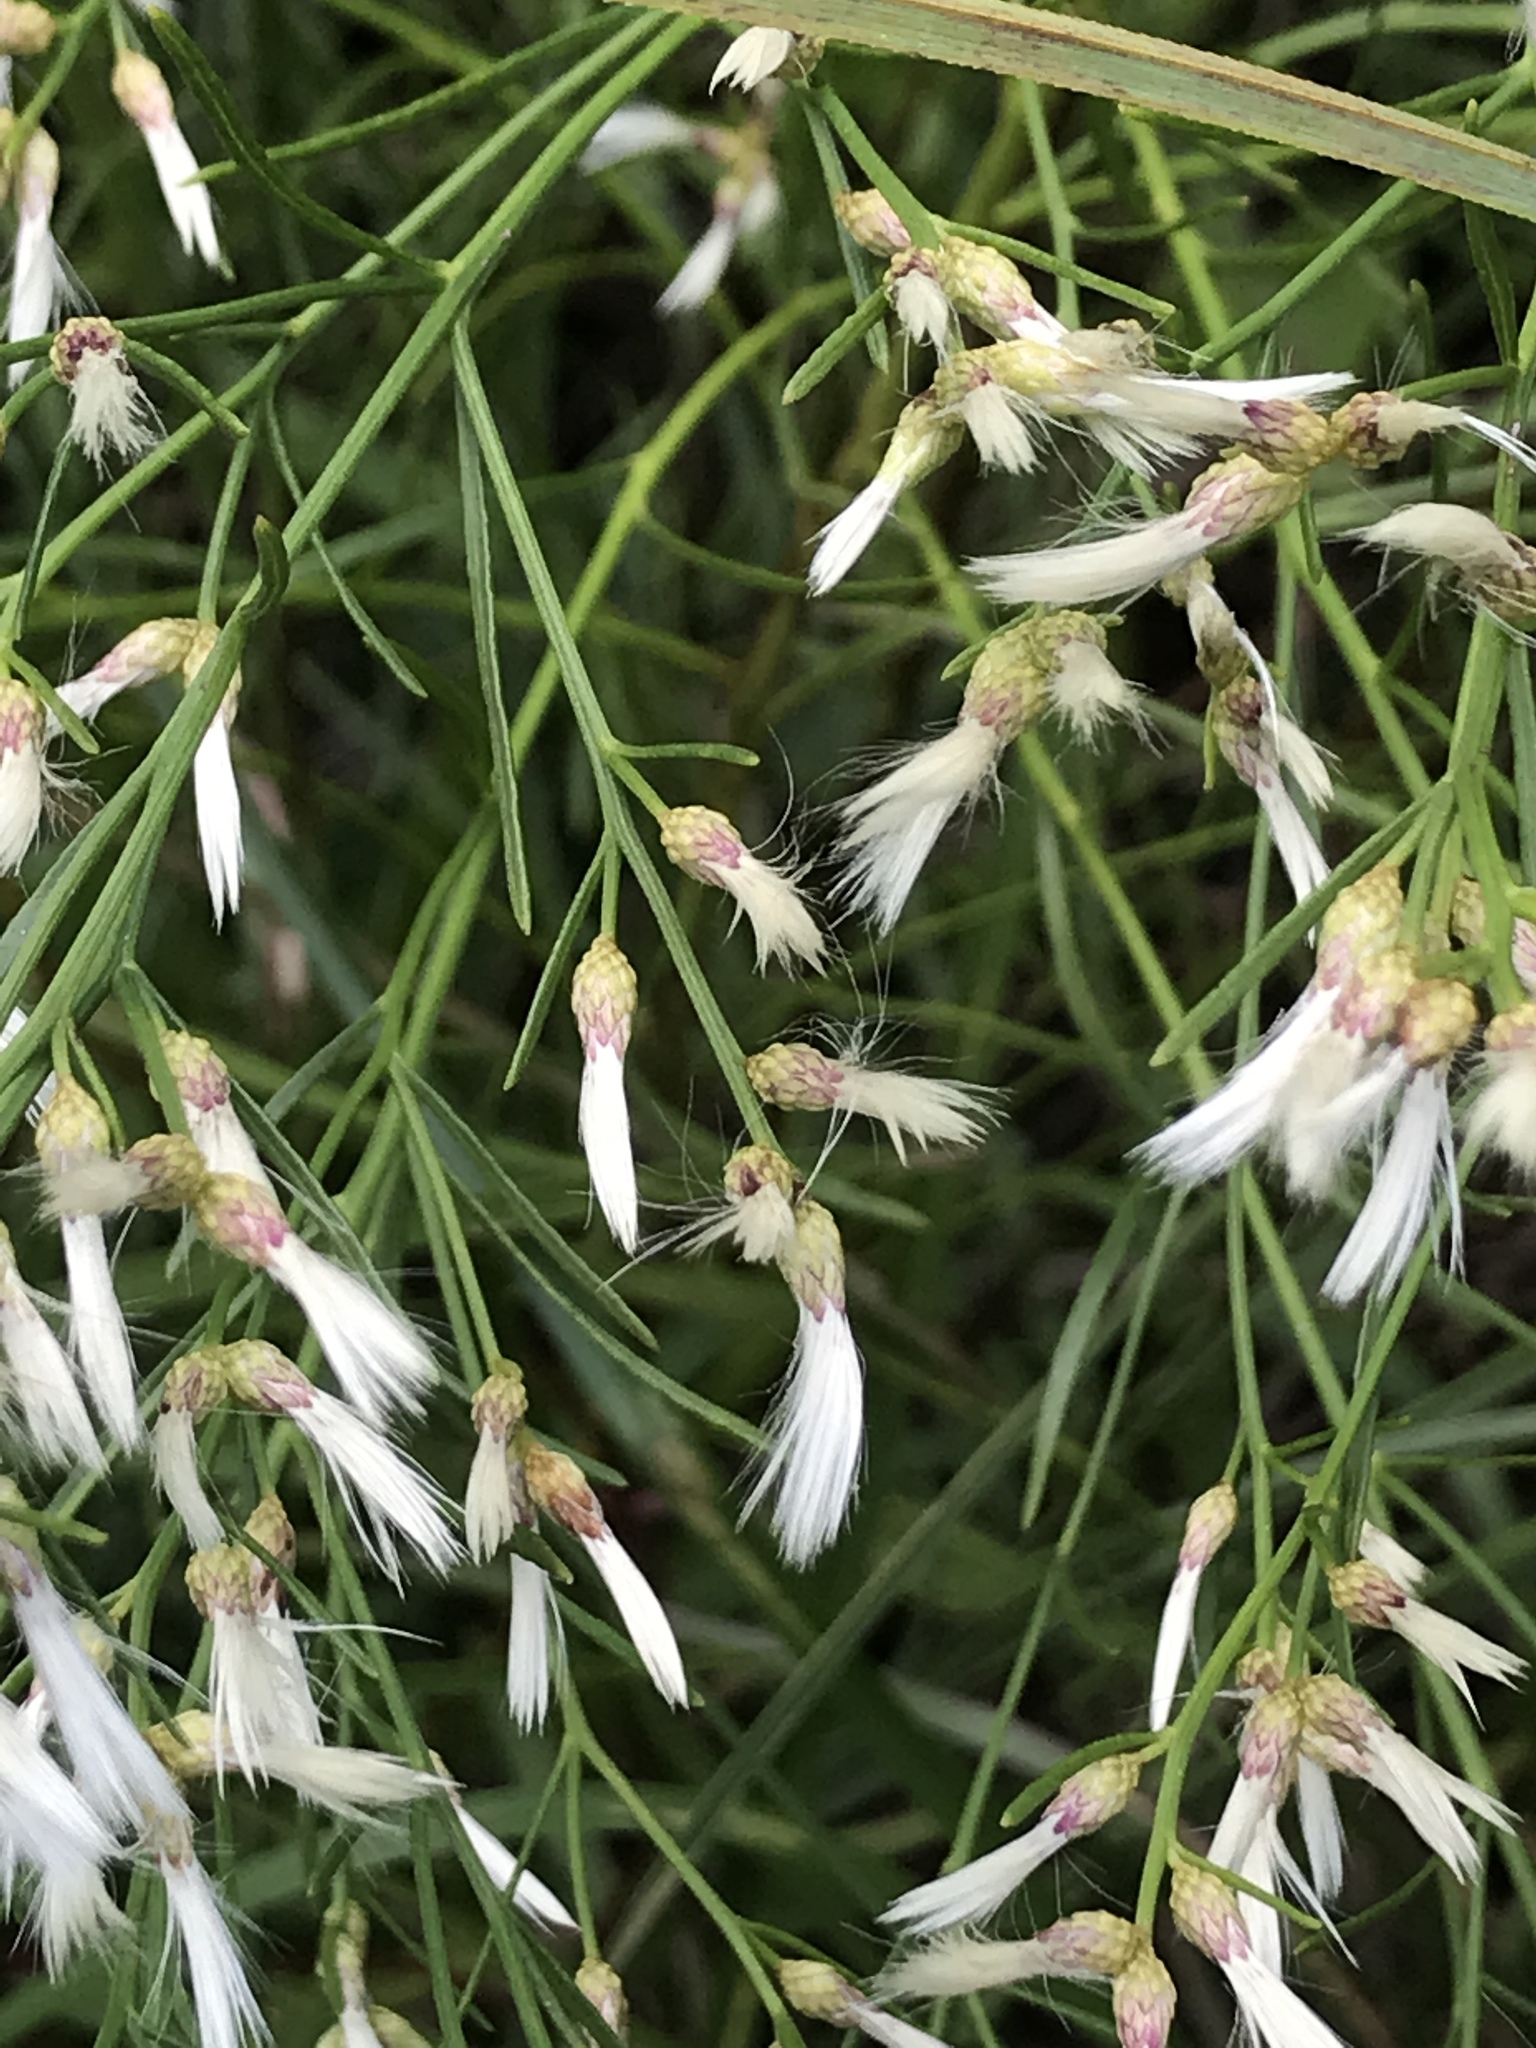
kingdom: Plantae
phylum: Tracheophyta
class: Magnoliopsida
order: Asterales
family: Asteraceae
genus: Baccharis
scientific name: Baccharis halimifolia
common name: Eastern baccharis
